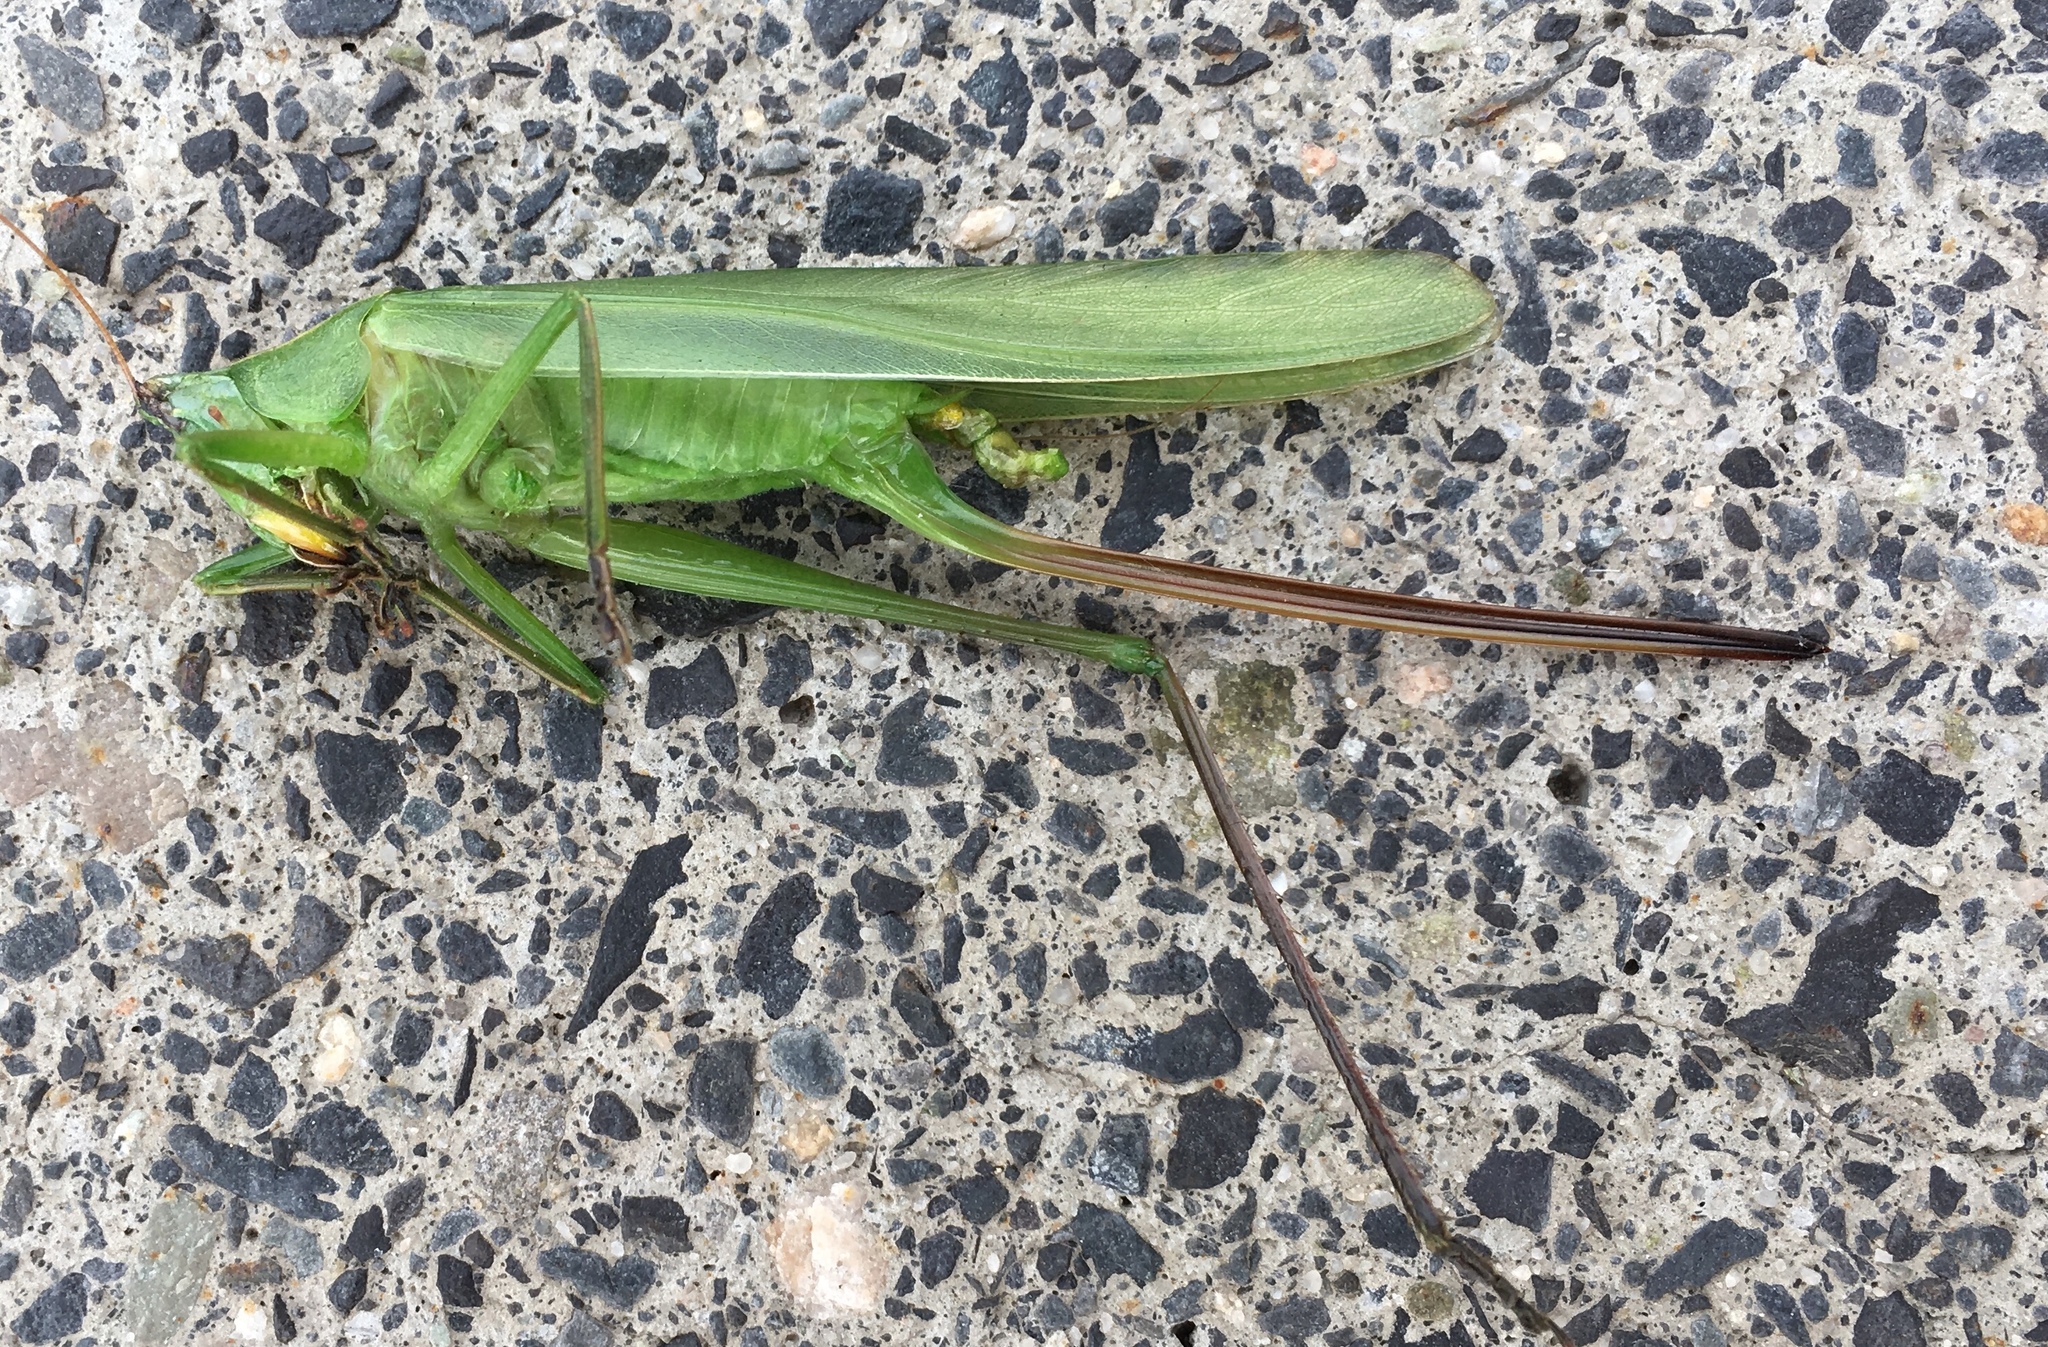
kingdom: Animalia
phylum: Arthropoda
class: Insecta
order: Orthoptera
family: Tettigoniidae
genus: Scudderia
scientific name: Scudderia furcata
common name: Fork-tailed bush katydid
